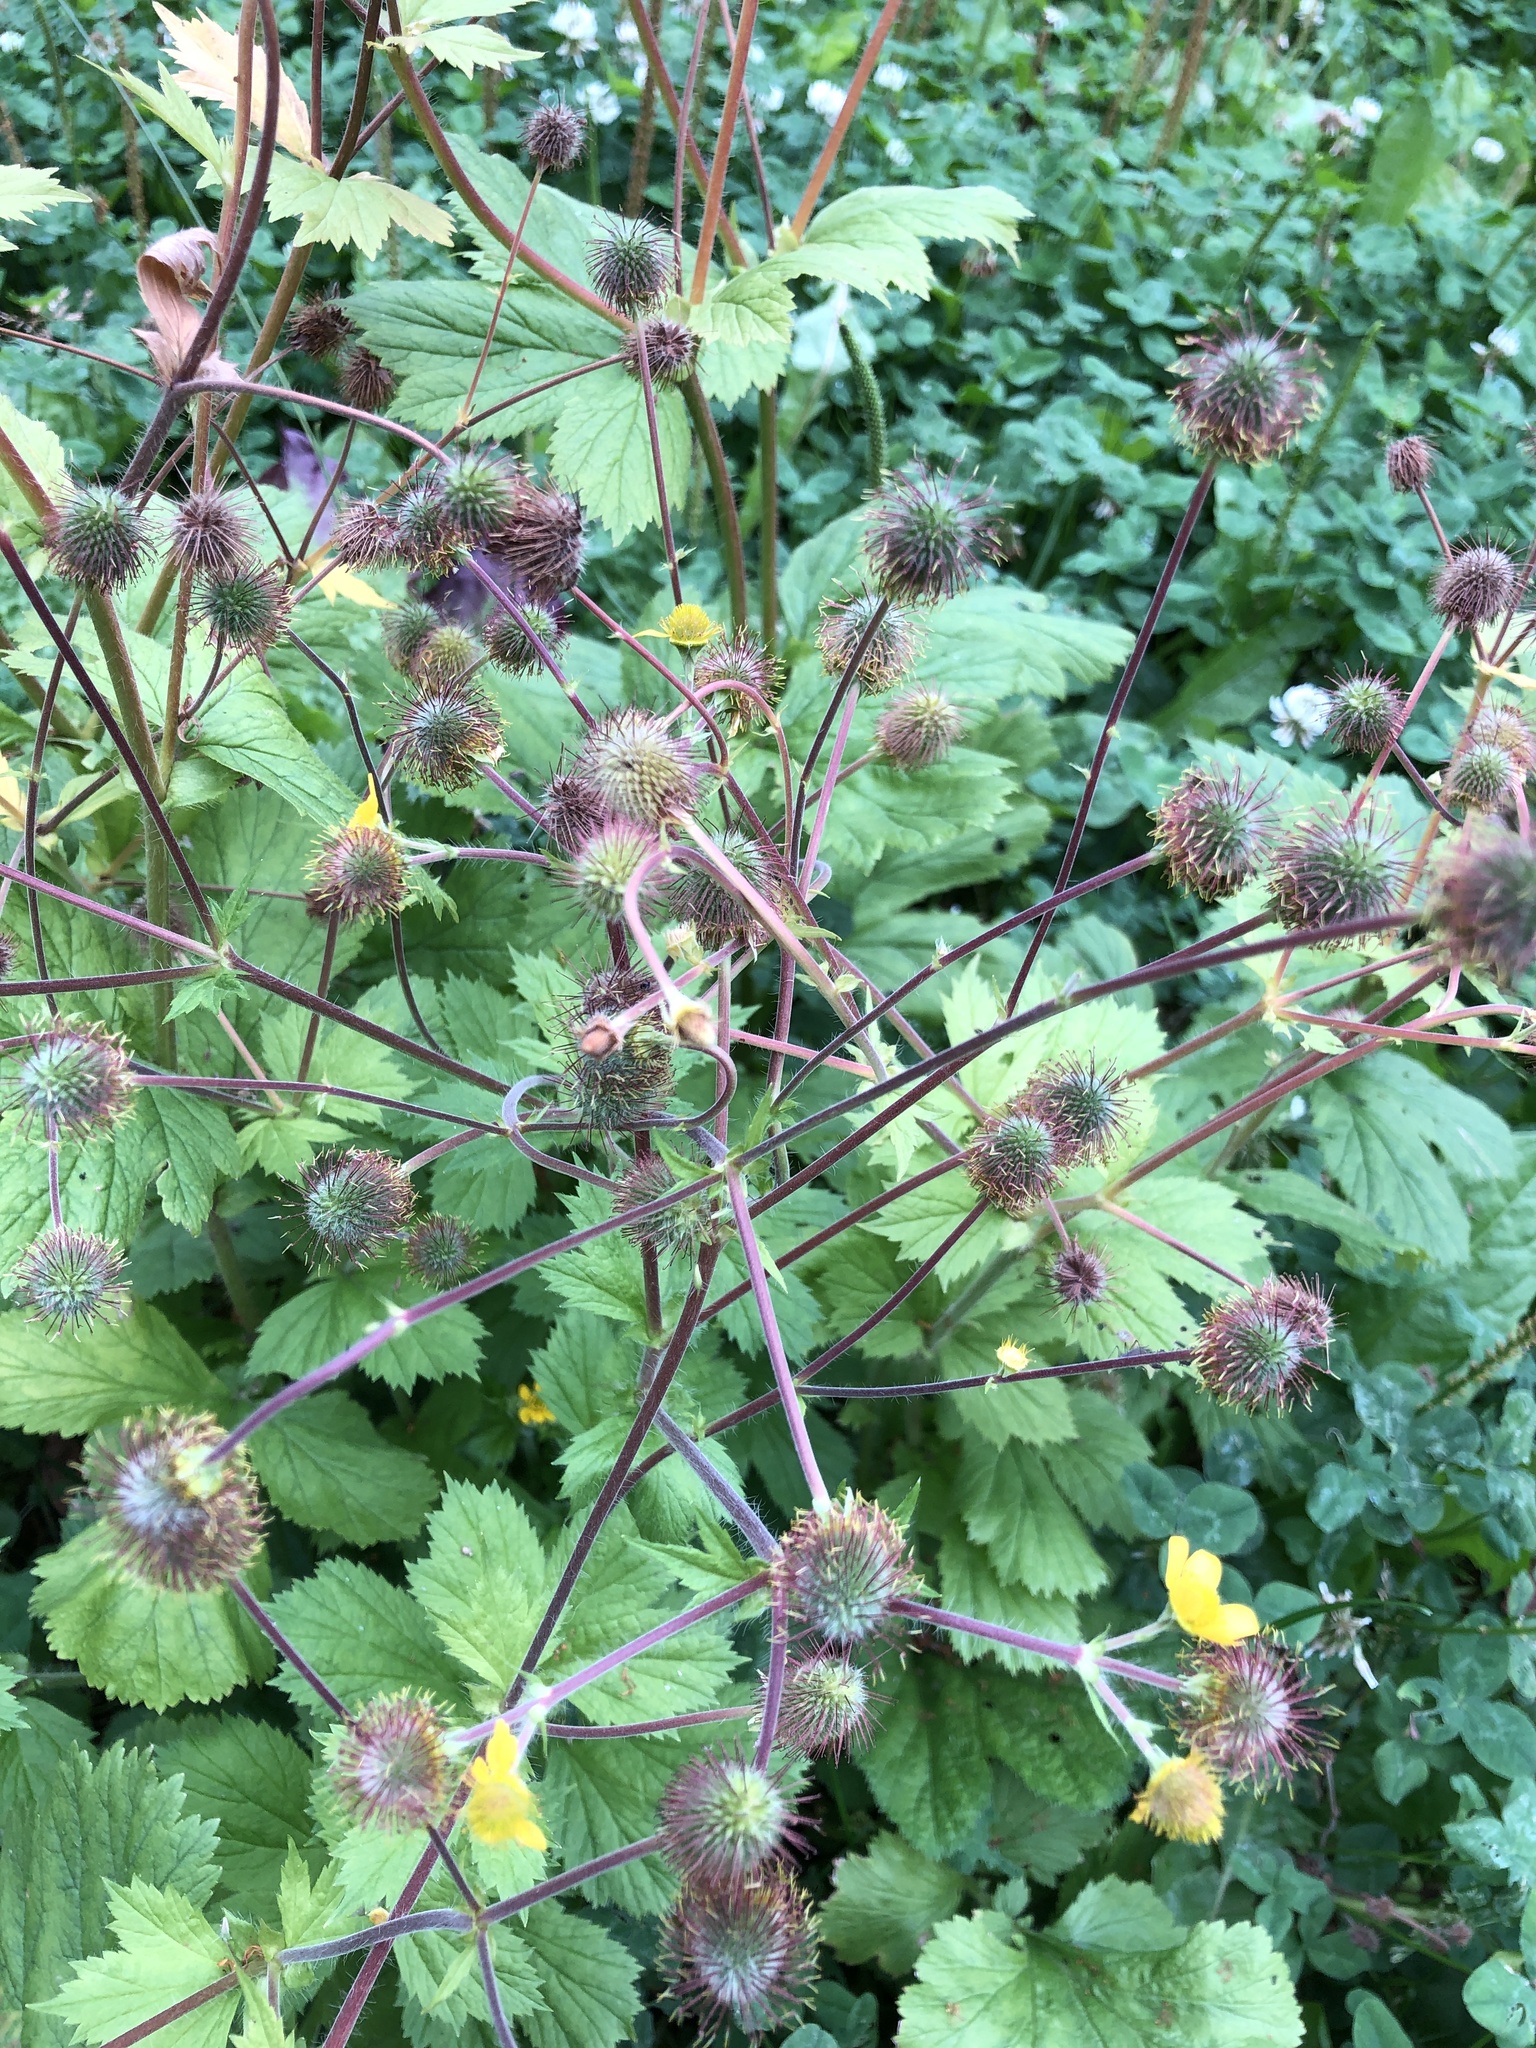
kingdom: Plantae
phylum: Tracheophyta
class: Magnoliopsida
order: Rosales
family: Rosaceae
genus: Geum
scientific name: Geum macrophyllum
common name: Large-leaved avens
